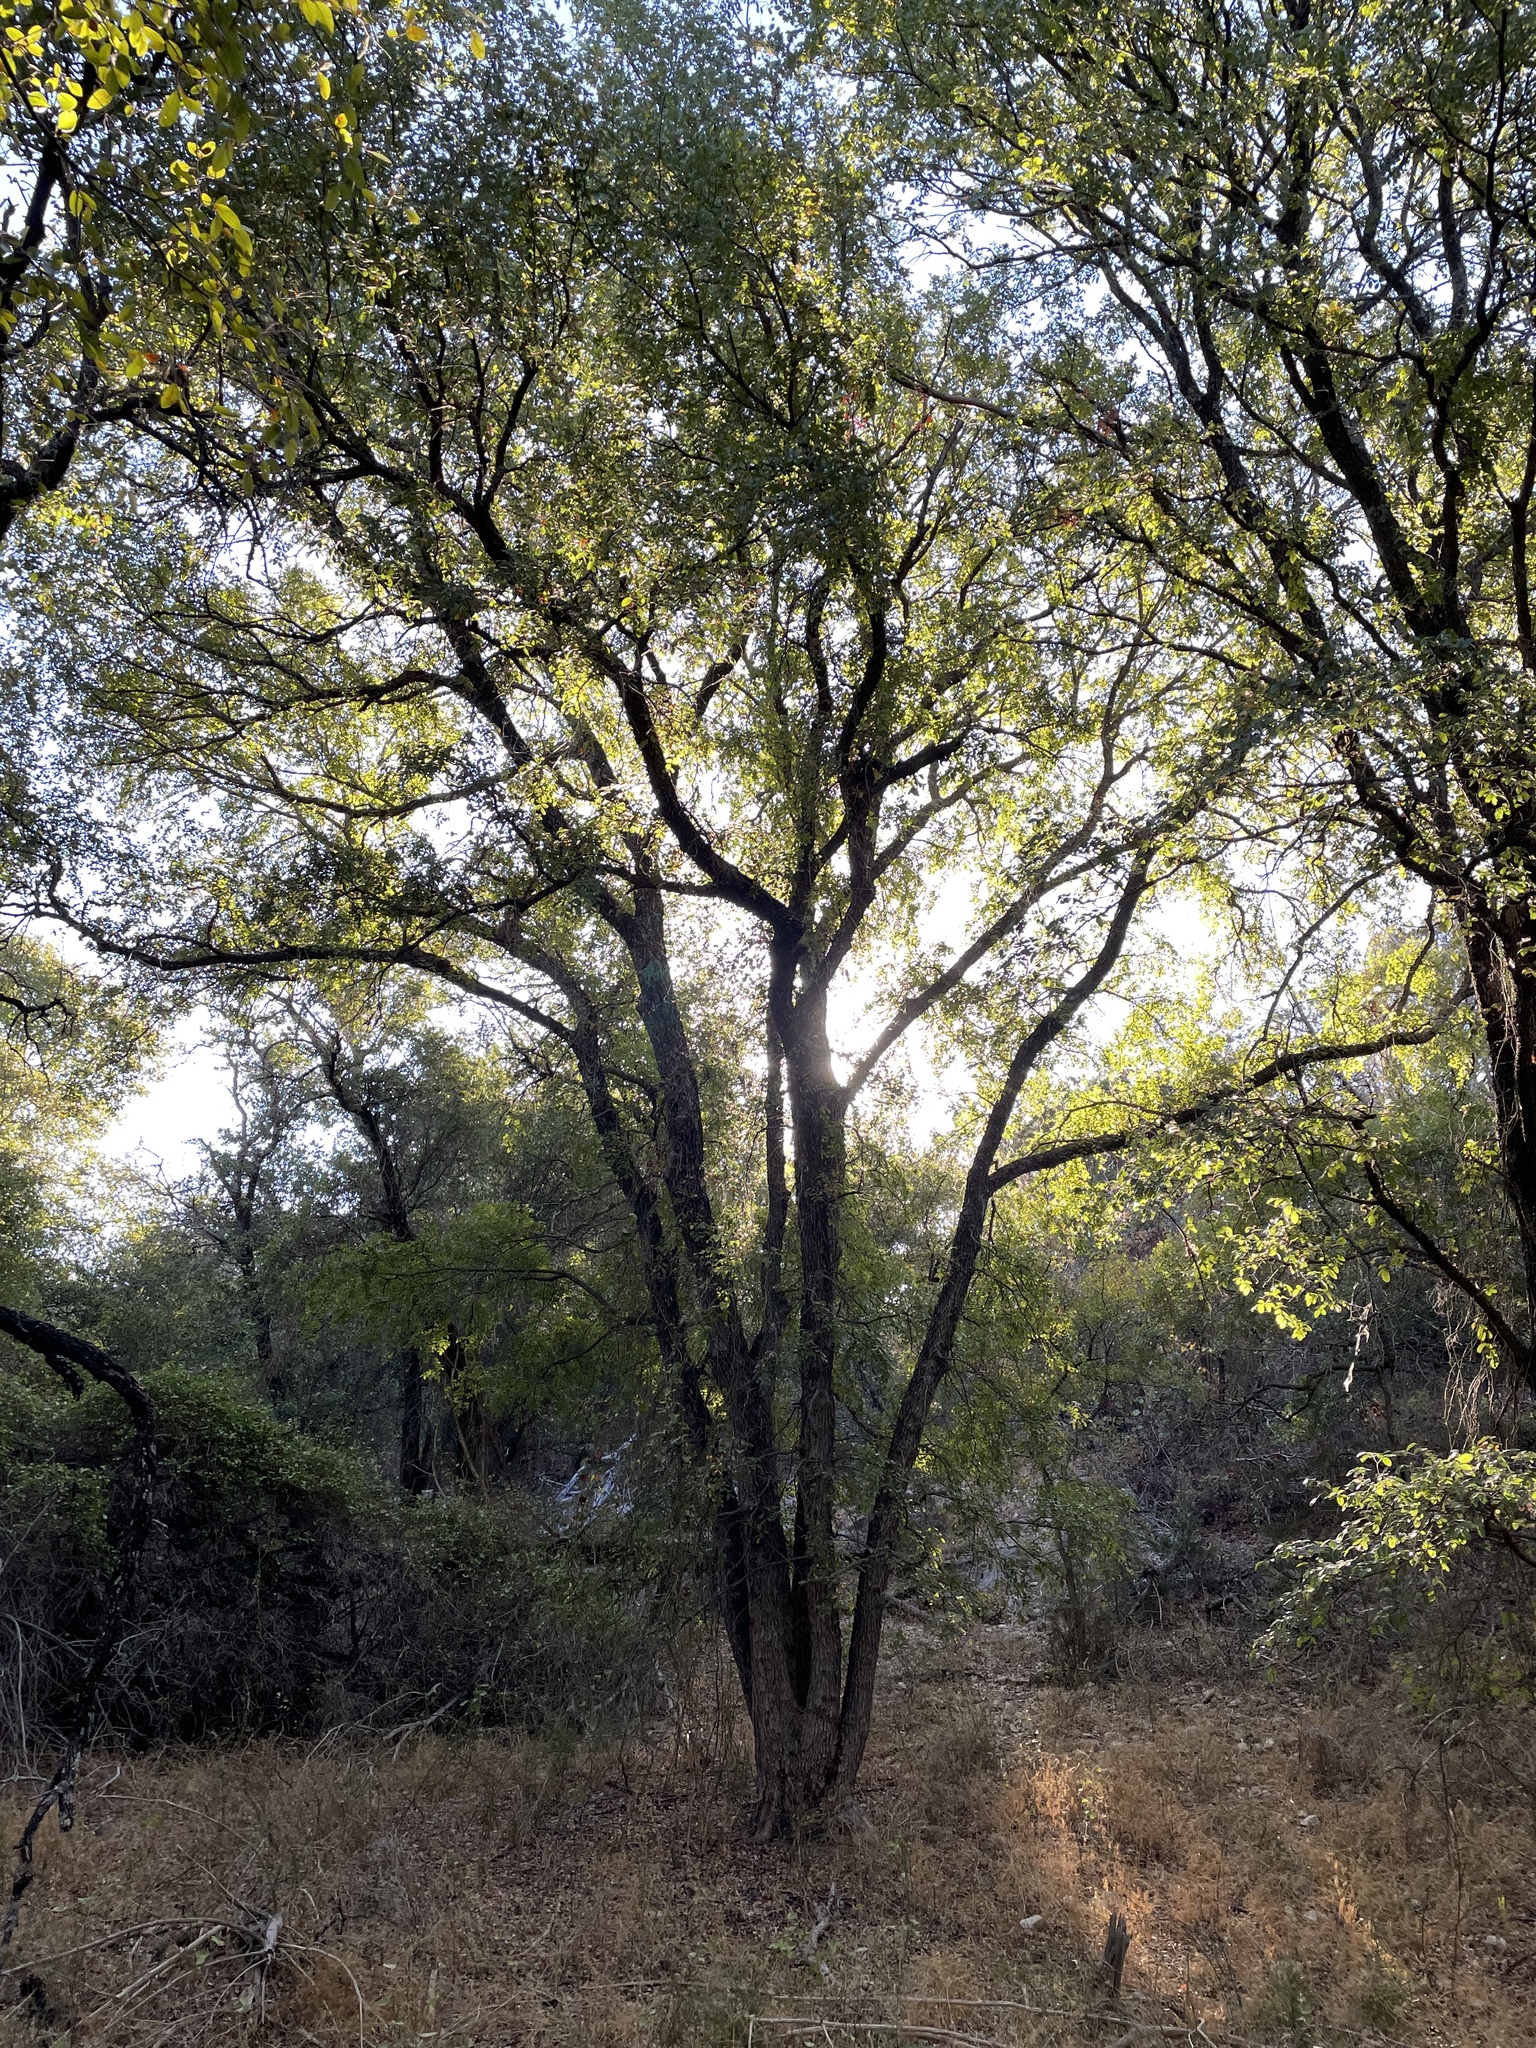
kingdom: Plantae
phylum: Tracheophyta
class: Magnoliopsida
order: Rosales
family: Ulmaceae
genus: Ulmus
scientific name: Ulmus crassifolia
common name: Basket elm
